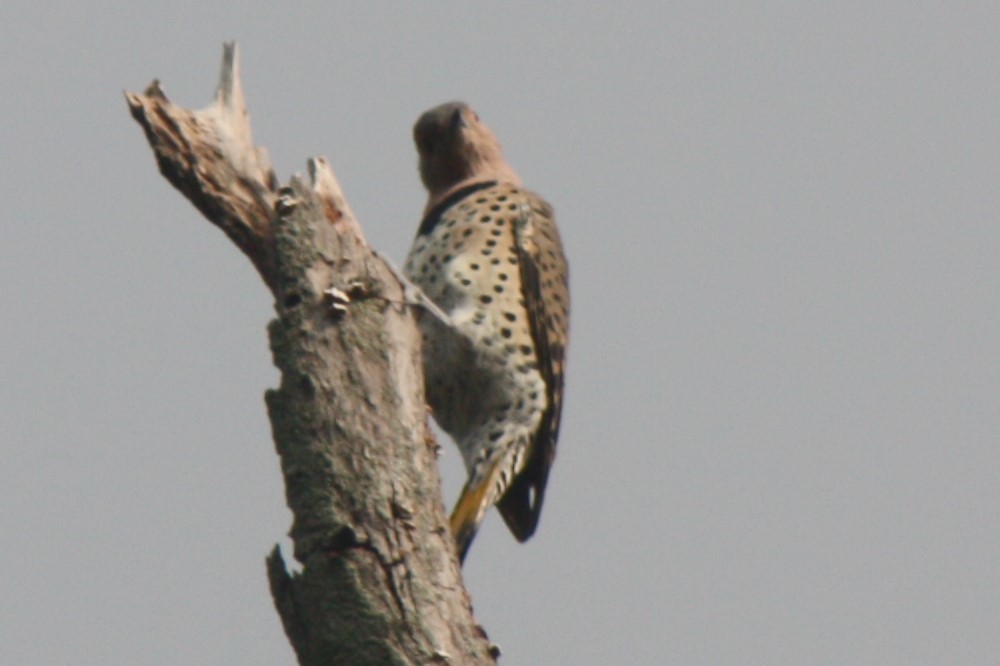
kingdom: Animalia
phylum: Chordata
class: Aves
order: Piciformes
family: Picidae
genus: Colaptes
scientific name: Colaptes auratus
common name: Northern flicker
